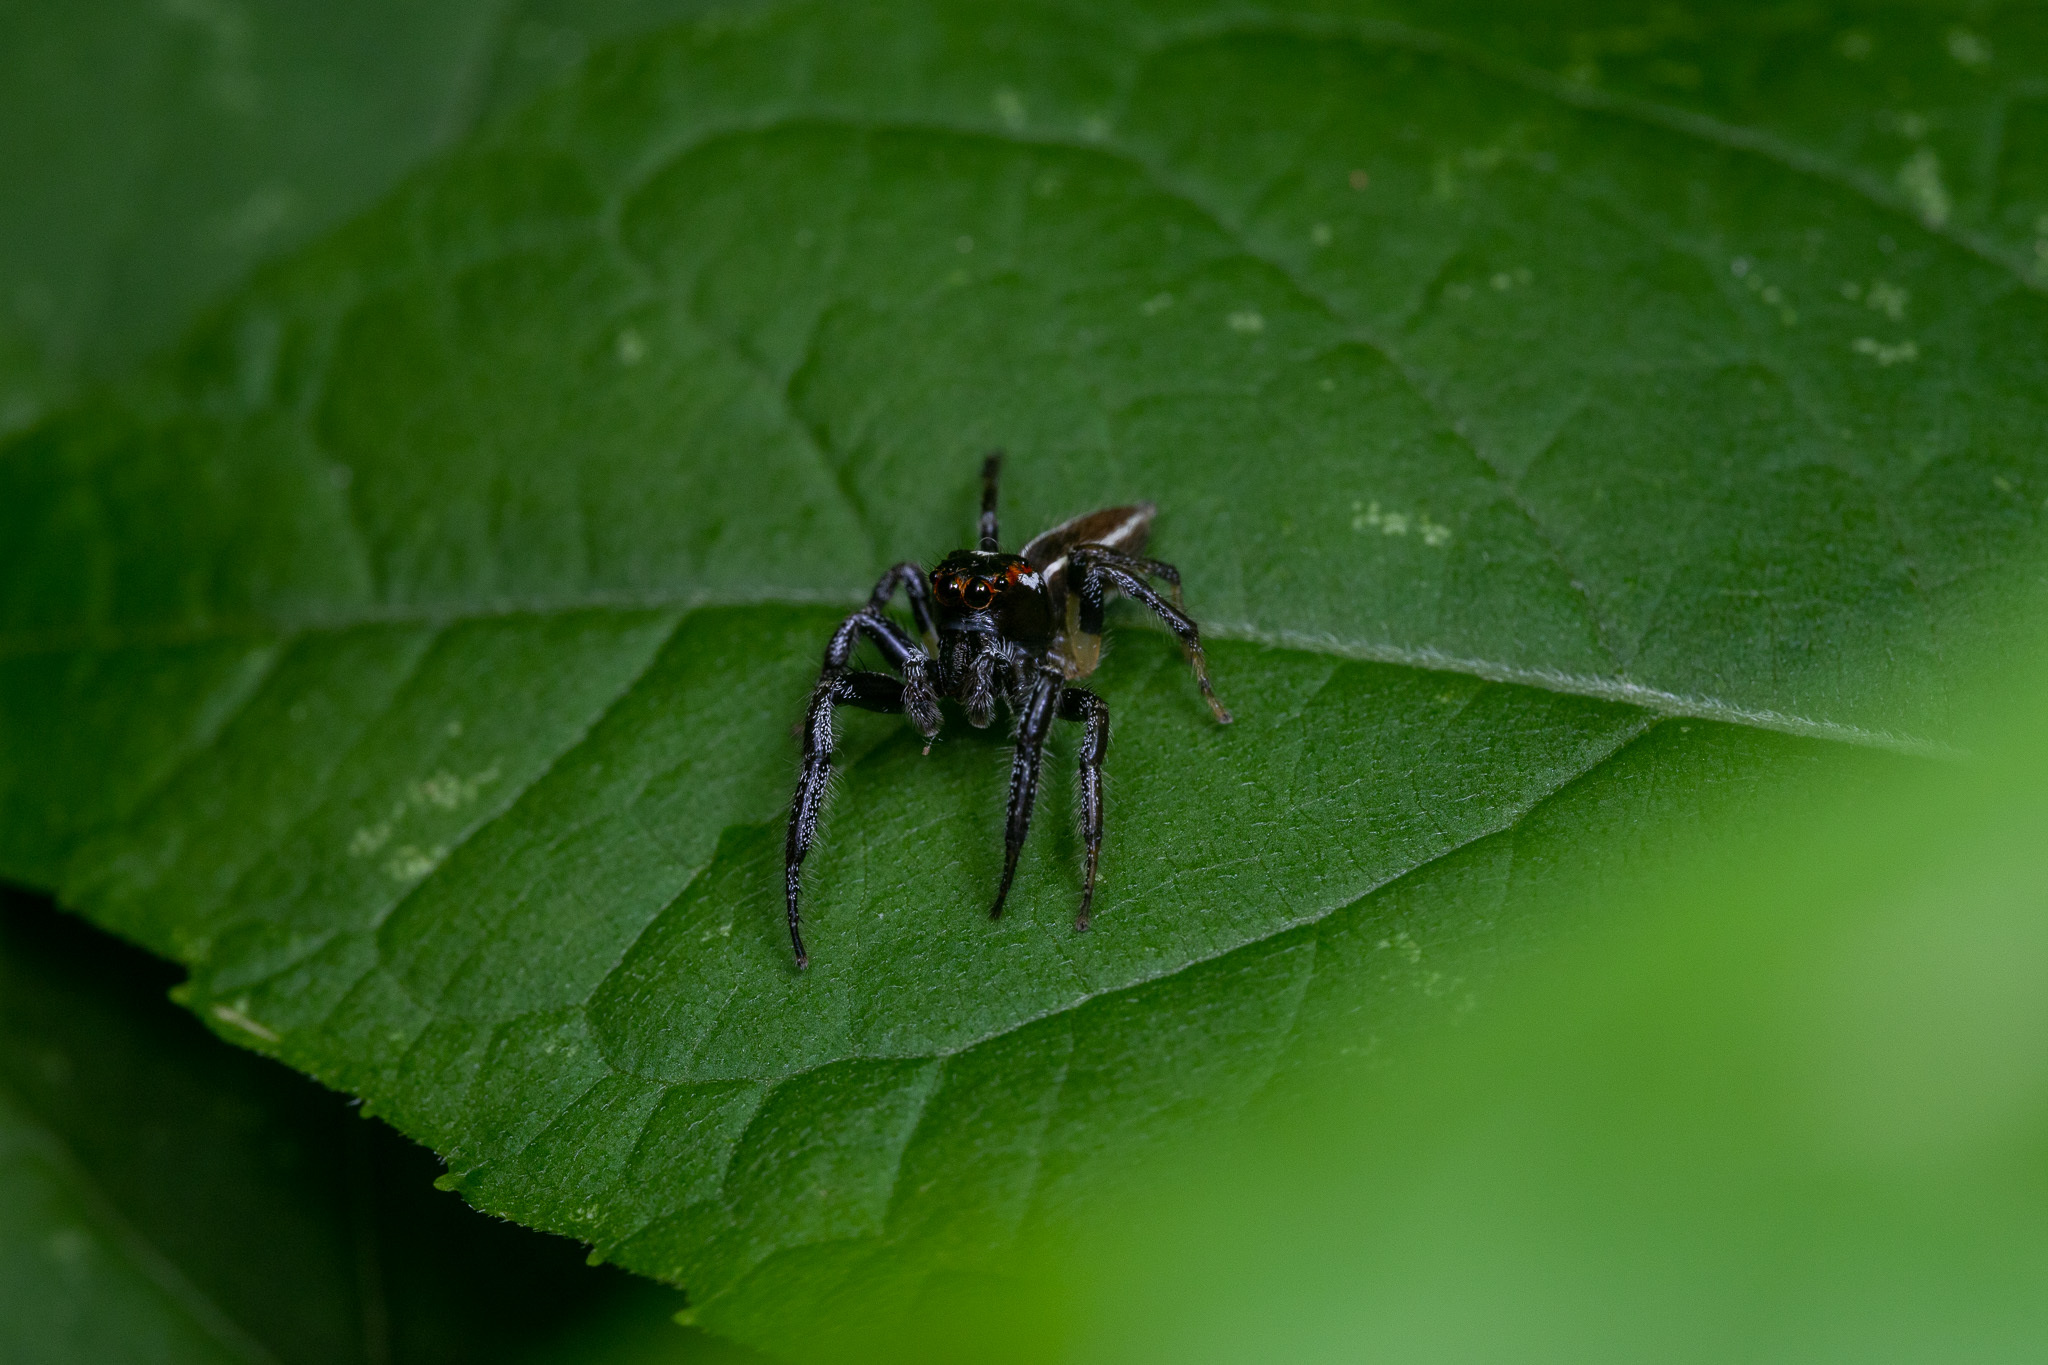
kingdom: Animalia
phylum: Arthropoda
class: Arachnida
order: Araneae
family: Salticidae
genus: Colonus
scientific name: Colonus sylvanus
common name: Jumping spiders
